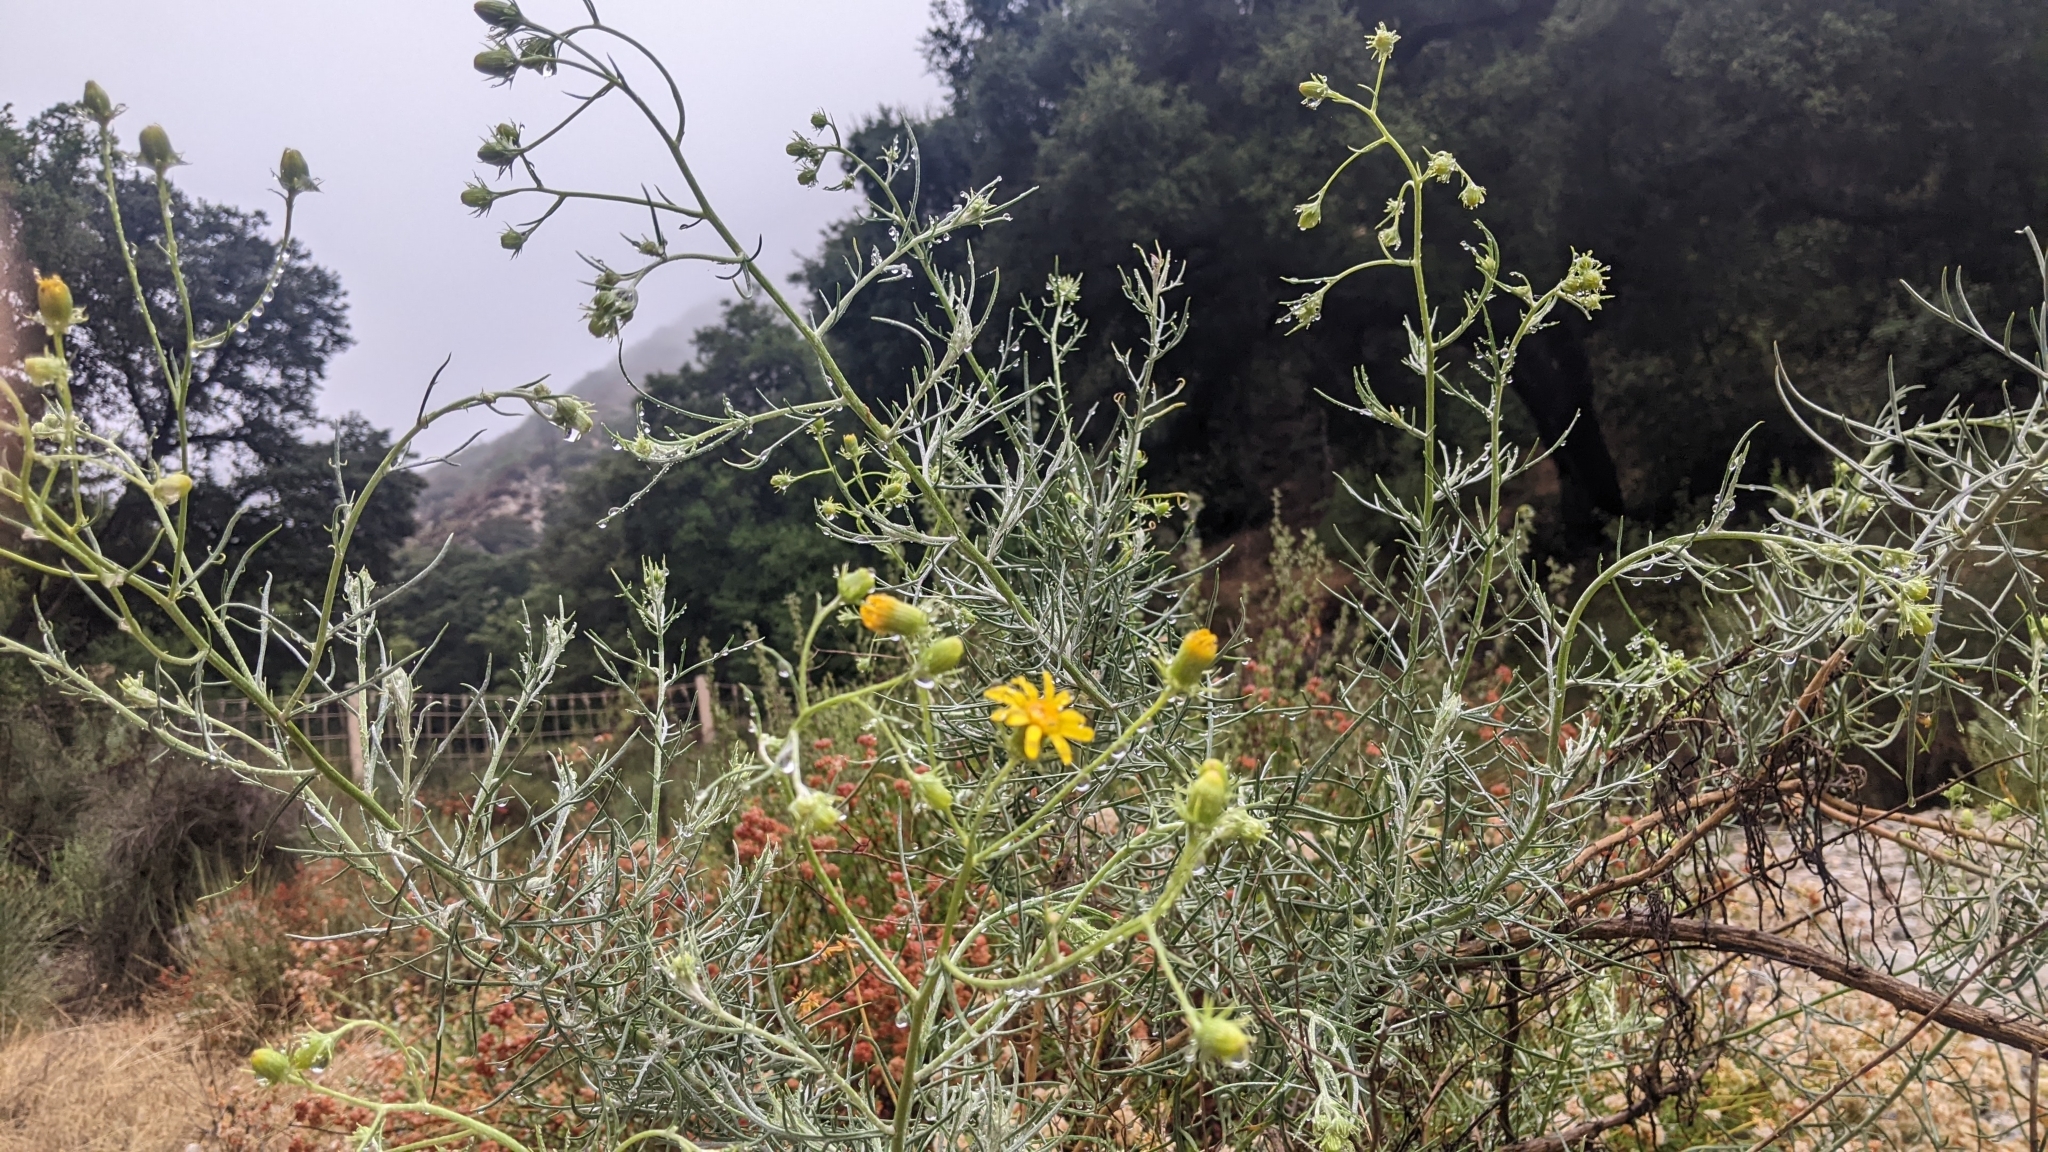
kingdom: Plantae
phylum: Tracheophyta
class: Magnoliopsida
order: Asterales
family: Asteraceae
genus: Senecio
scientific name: Senecio flaccidus
